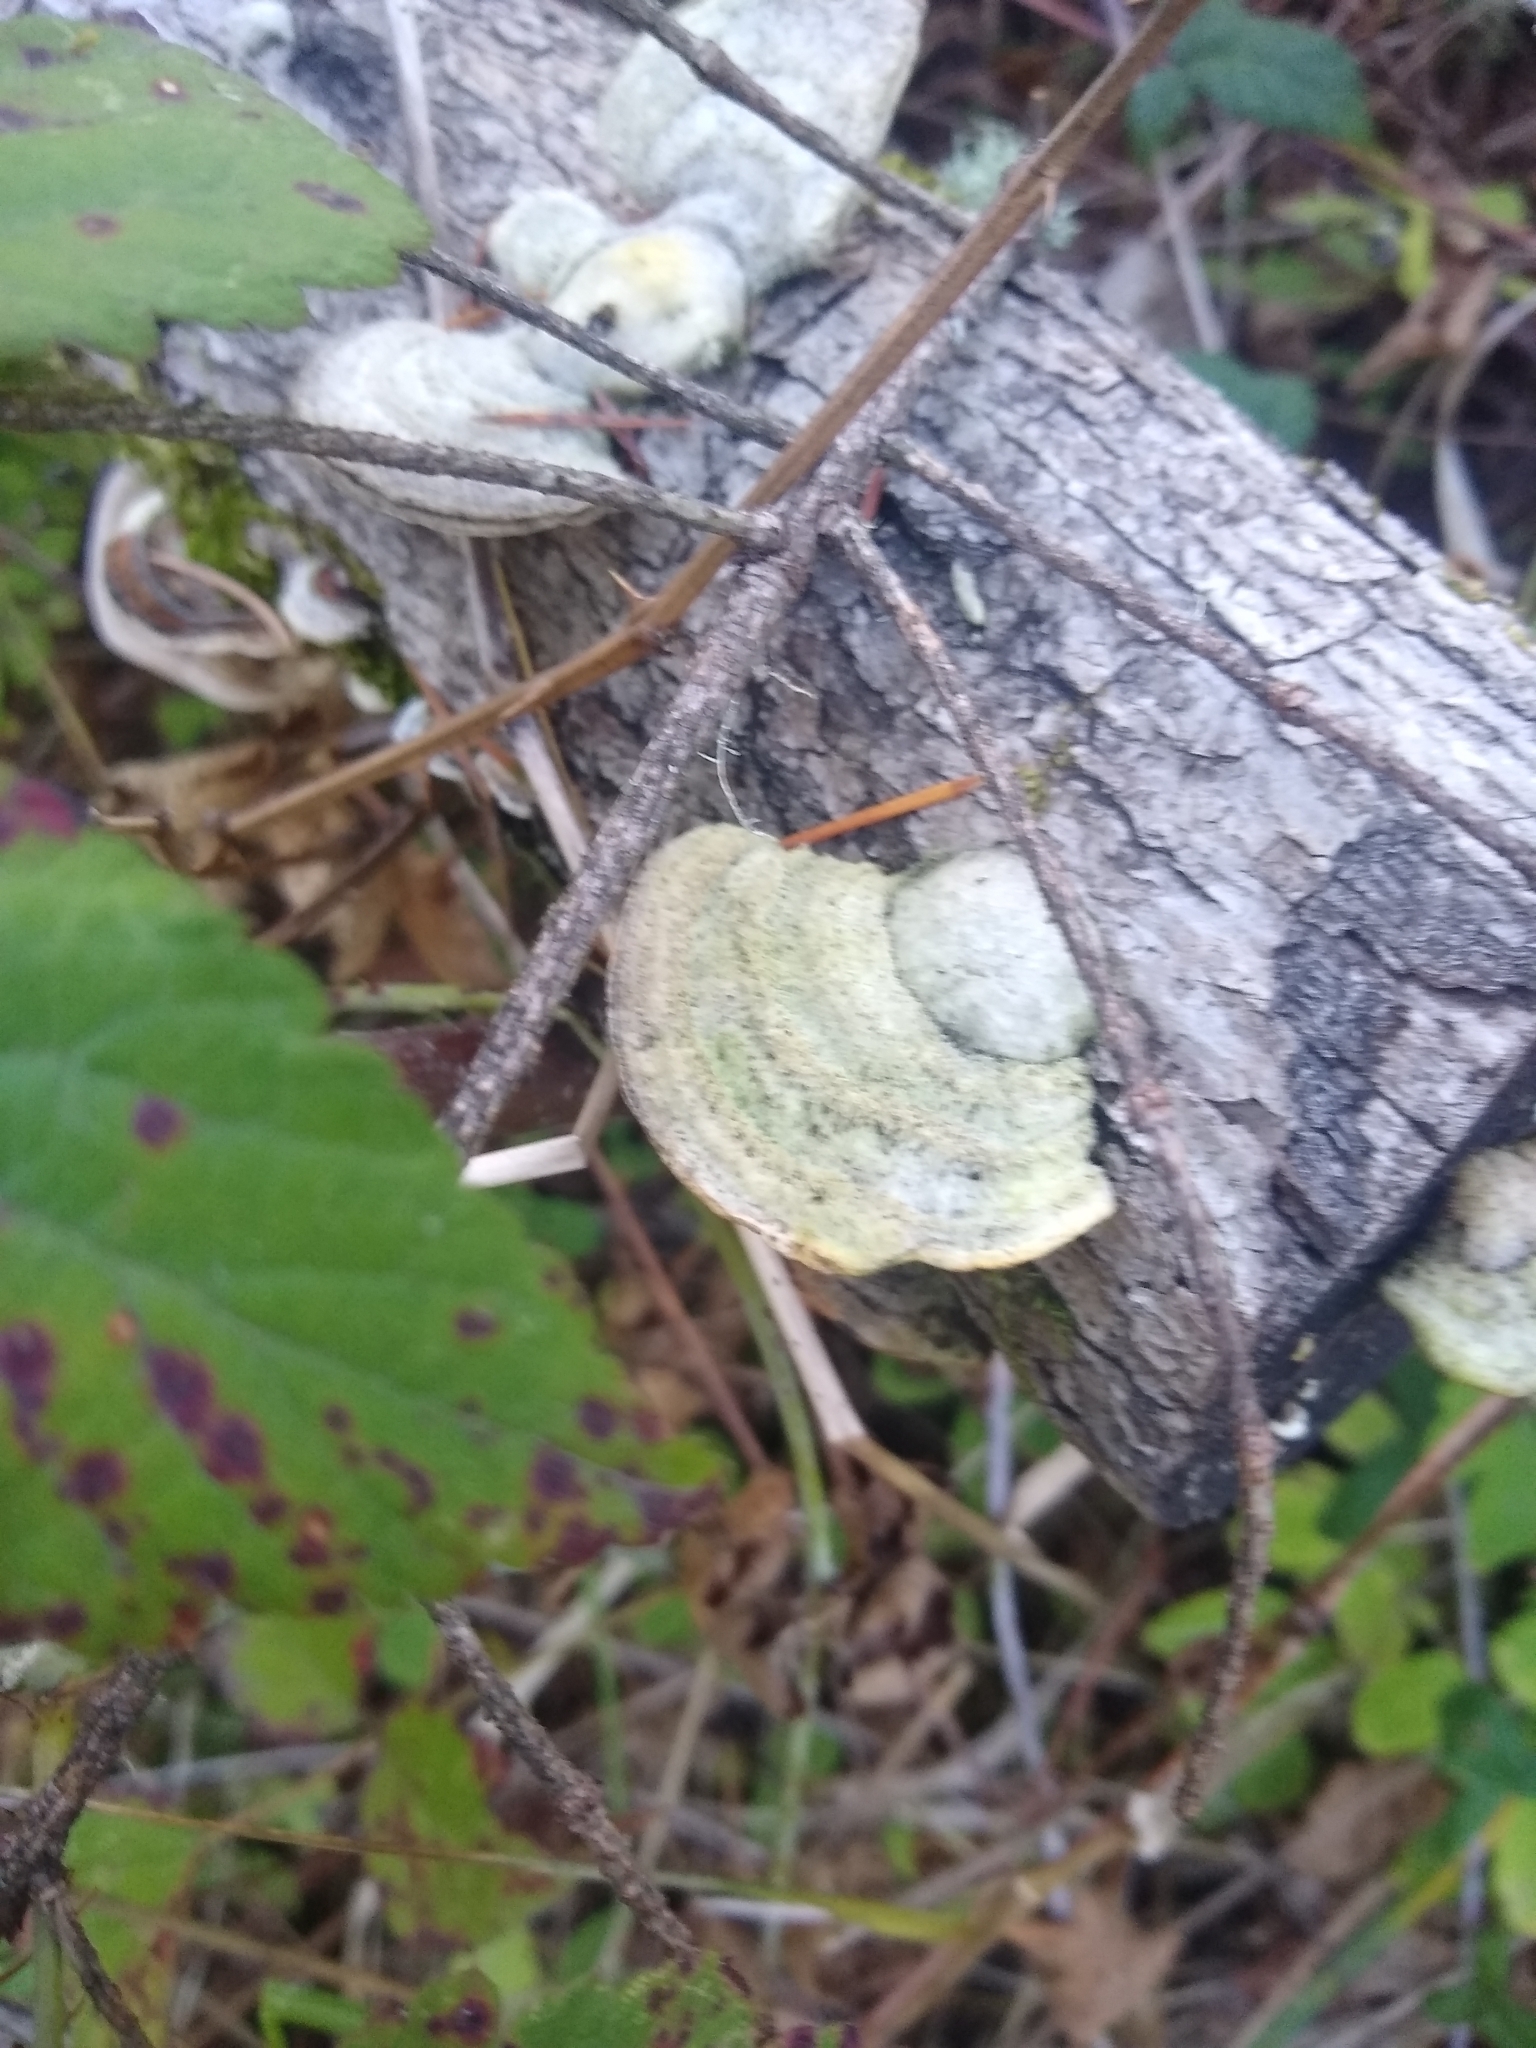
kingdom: Fungi
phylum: Basidiomycota
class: Agaricomycetes
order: Polyporales
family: Polyporaceae
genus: Trametes
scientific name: Trametes hirsuta
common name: Hairy bracket
